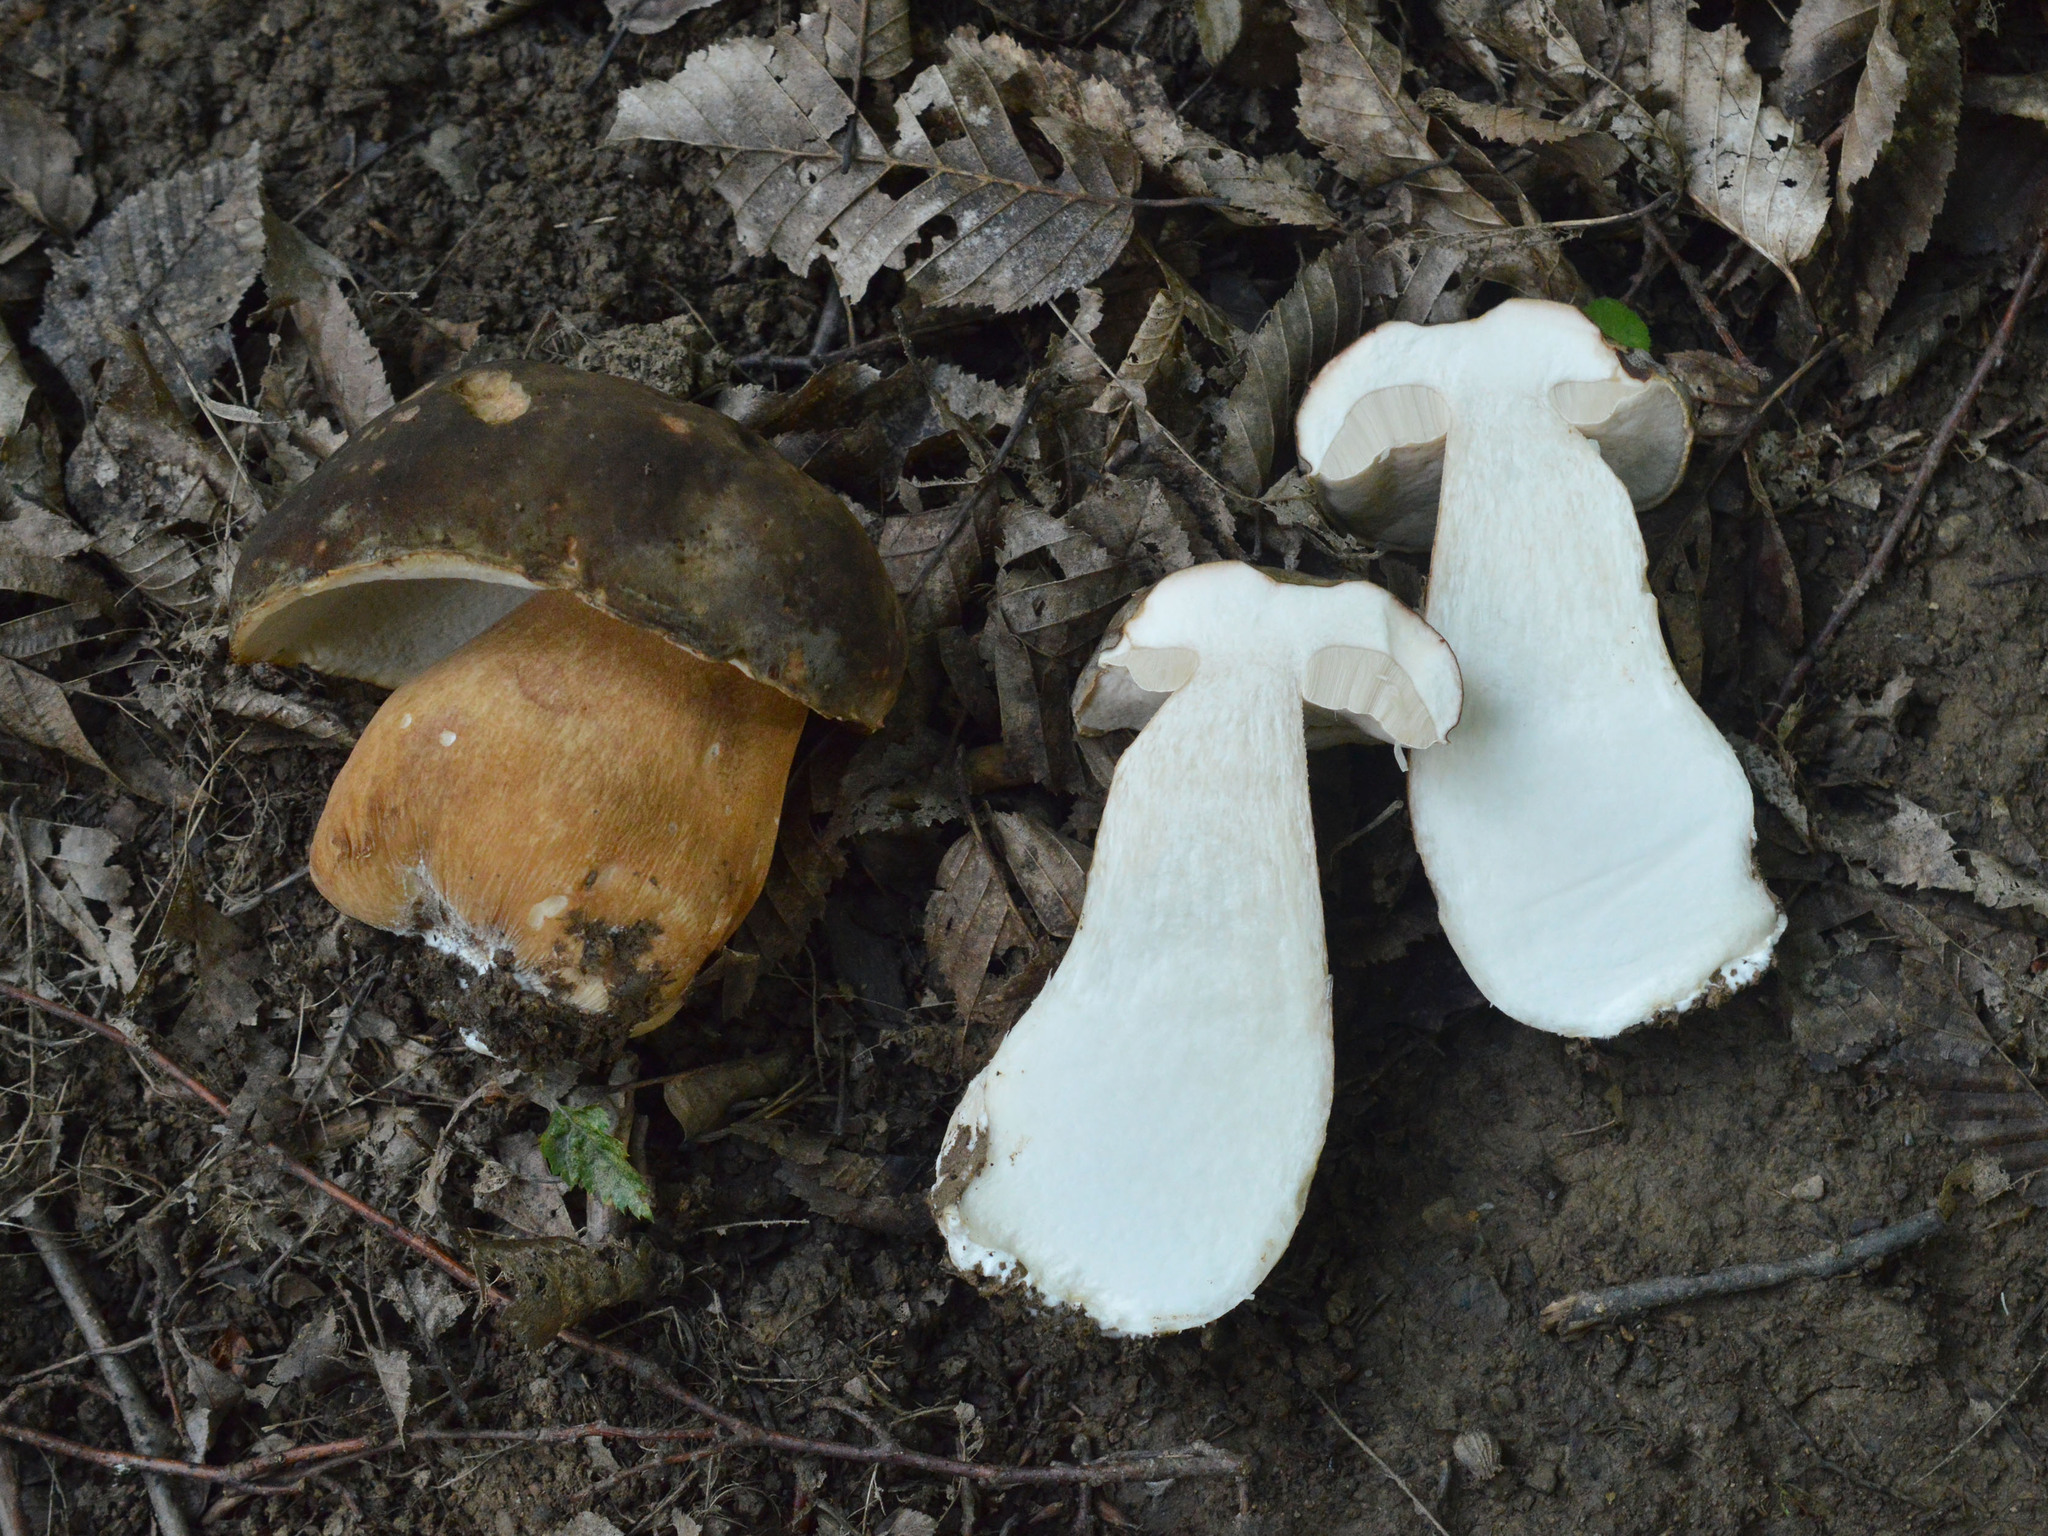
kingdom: Fungi
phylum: Basidiomycota
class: Agaricomycetes
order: Boletales
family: Boletaceae
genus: Boletus
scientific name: Boletus aereus
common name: Bronze bolete
